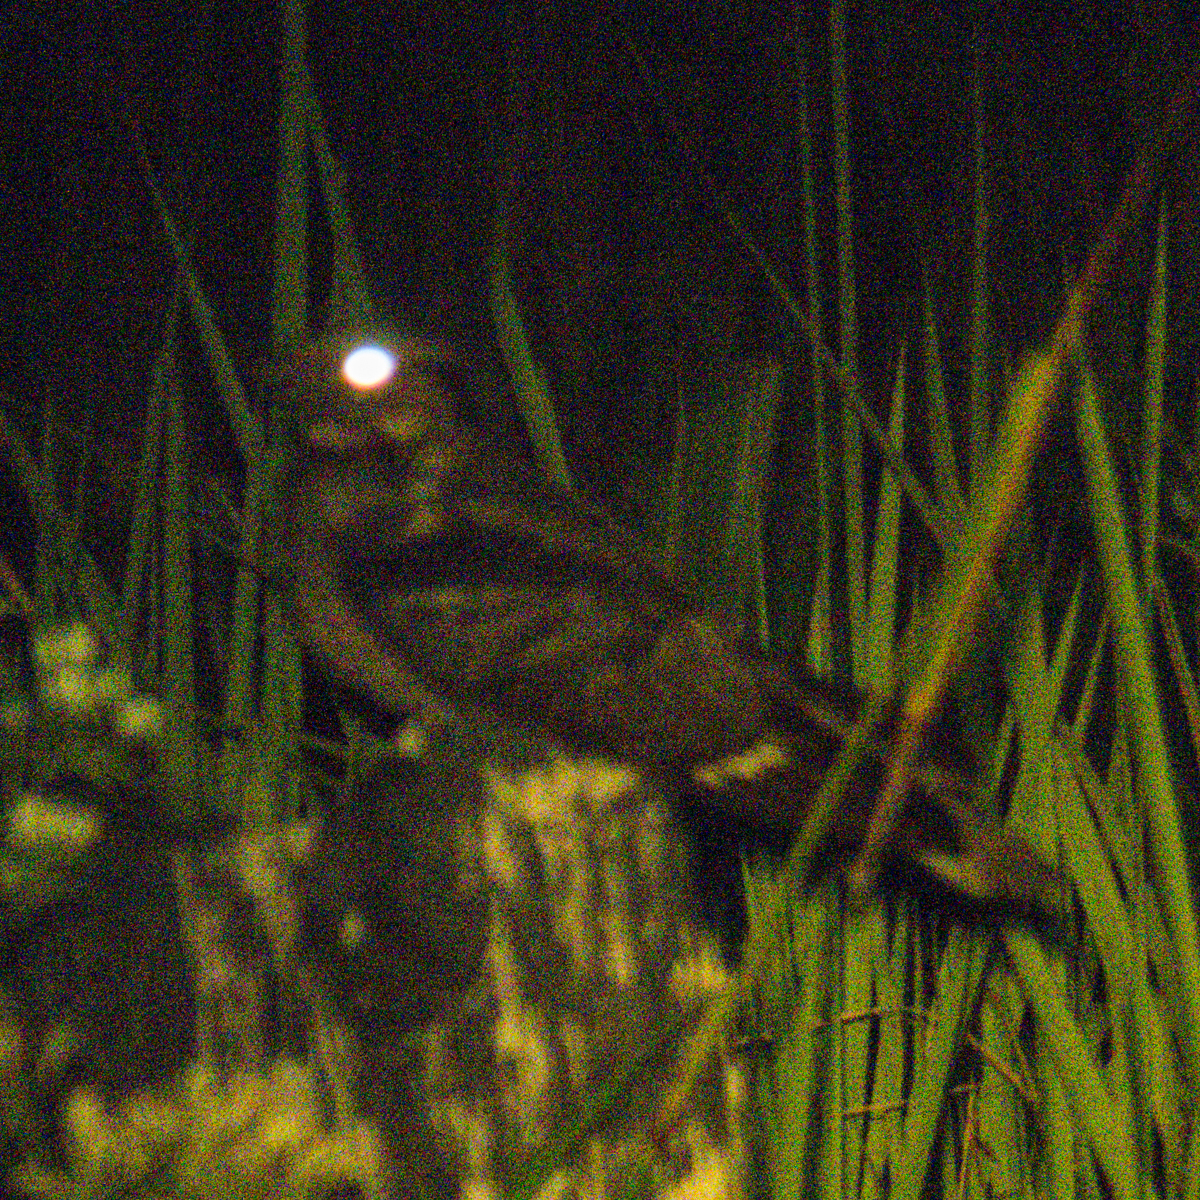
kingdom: Animalia
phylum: Chordata
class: Aves
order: Caprimulgiformes
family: Caprimulgidae
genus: Caprimulgus
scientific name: Caprimulgus macrurus
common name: Large-tailed nightjar
